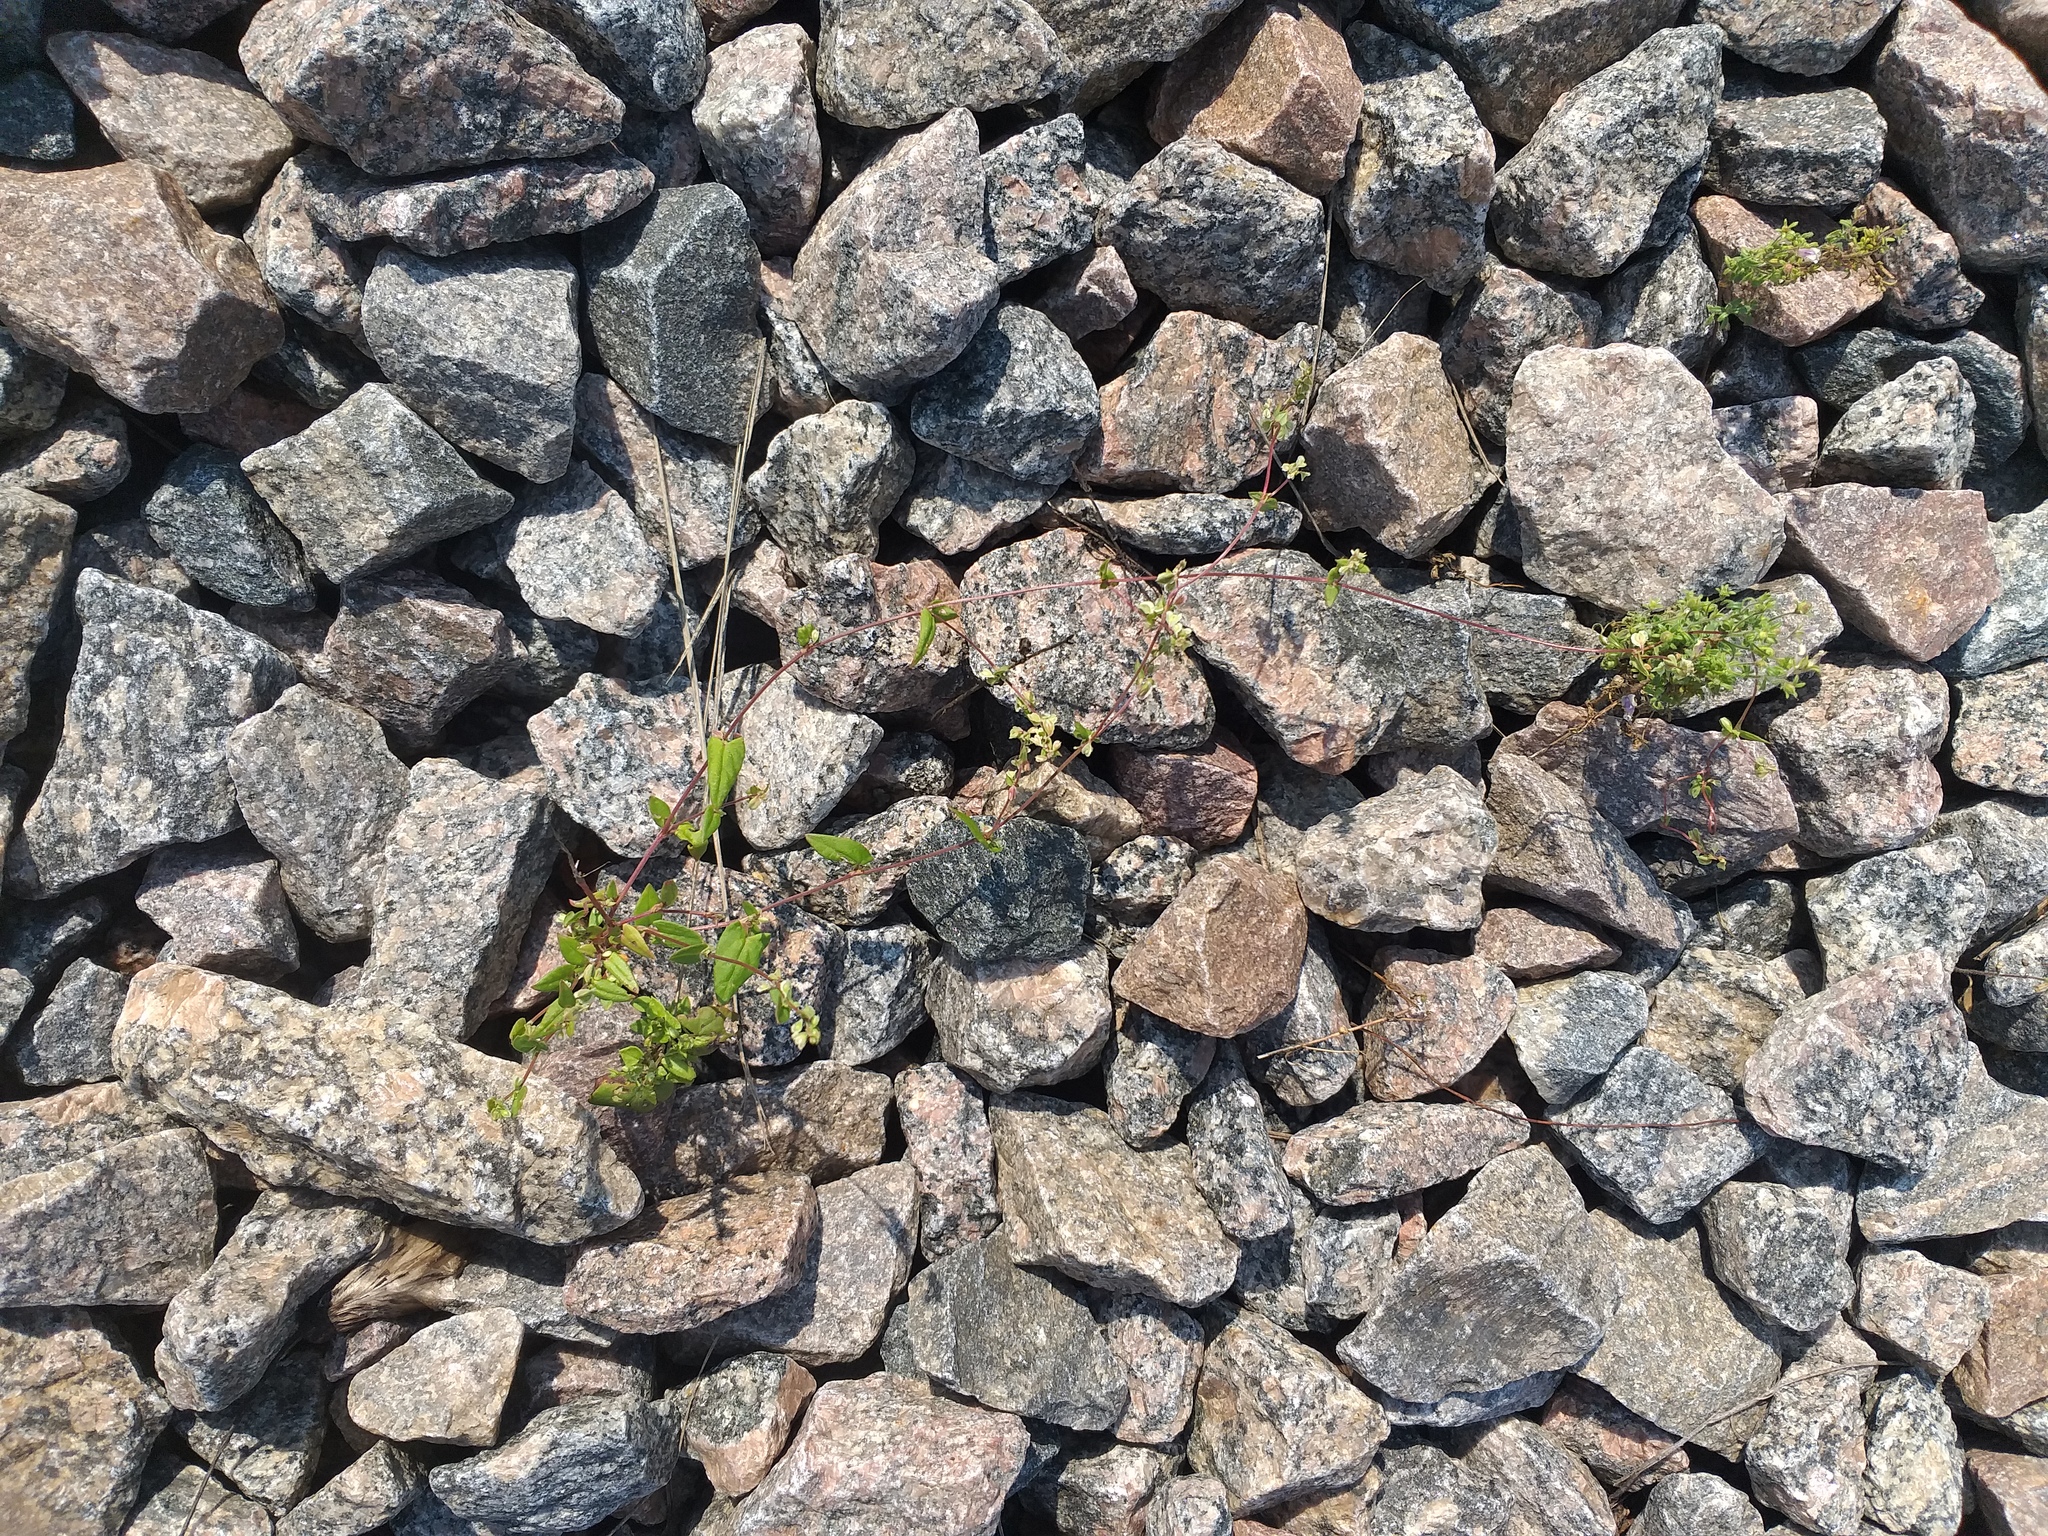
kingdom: Plantae
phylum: Tracheophyta
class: Magnoliopsida
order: Caryophyllales
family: Polygonaceae
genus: Fallopia
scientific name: Fallopia dumetorum
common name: Copse-bindweed
